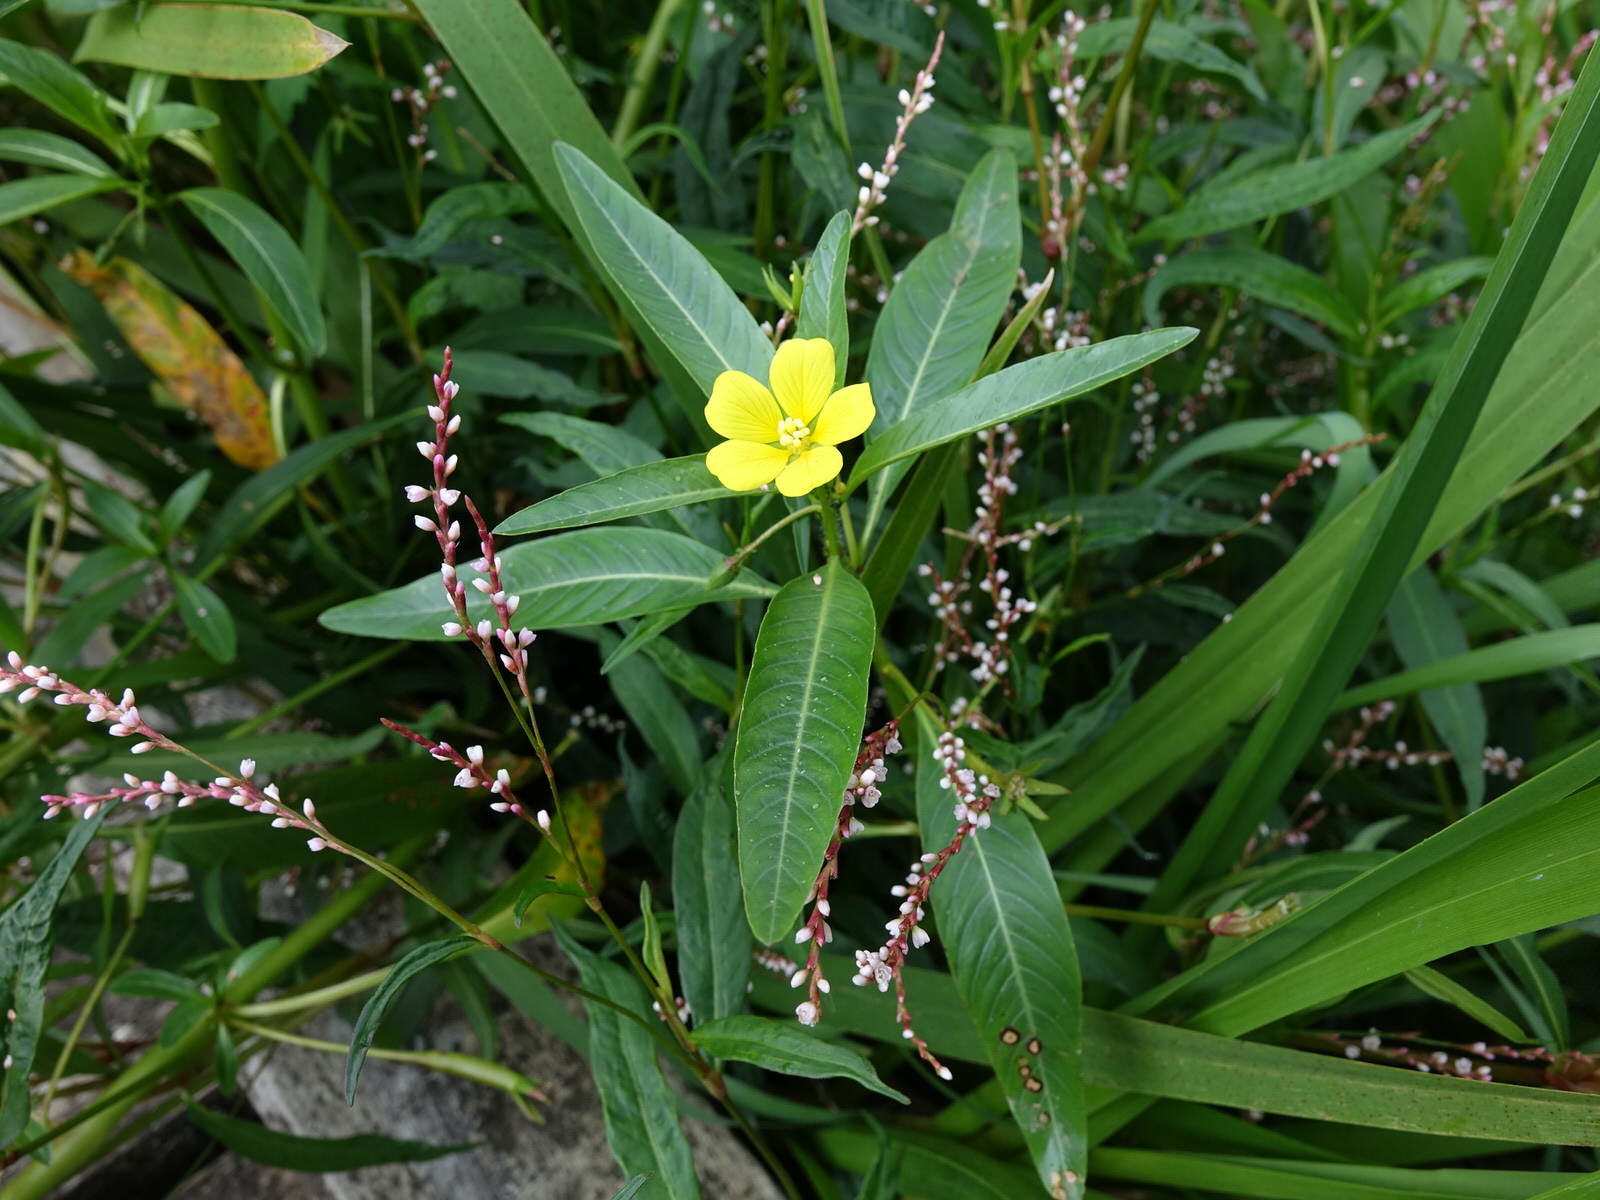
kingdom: Plantae
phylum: Tracheophyta
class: Magnoliopsida
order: Myrtales
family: Onagraceae
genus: Ludwigia
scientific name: Ludwigia peploides
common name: Floating primrose-willow
